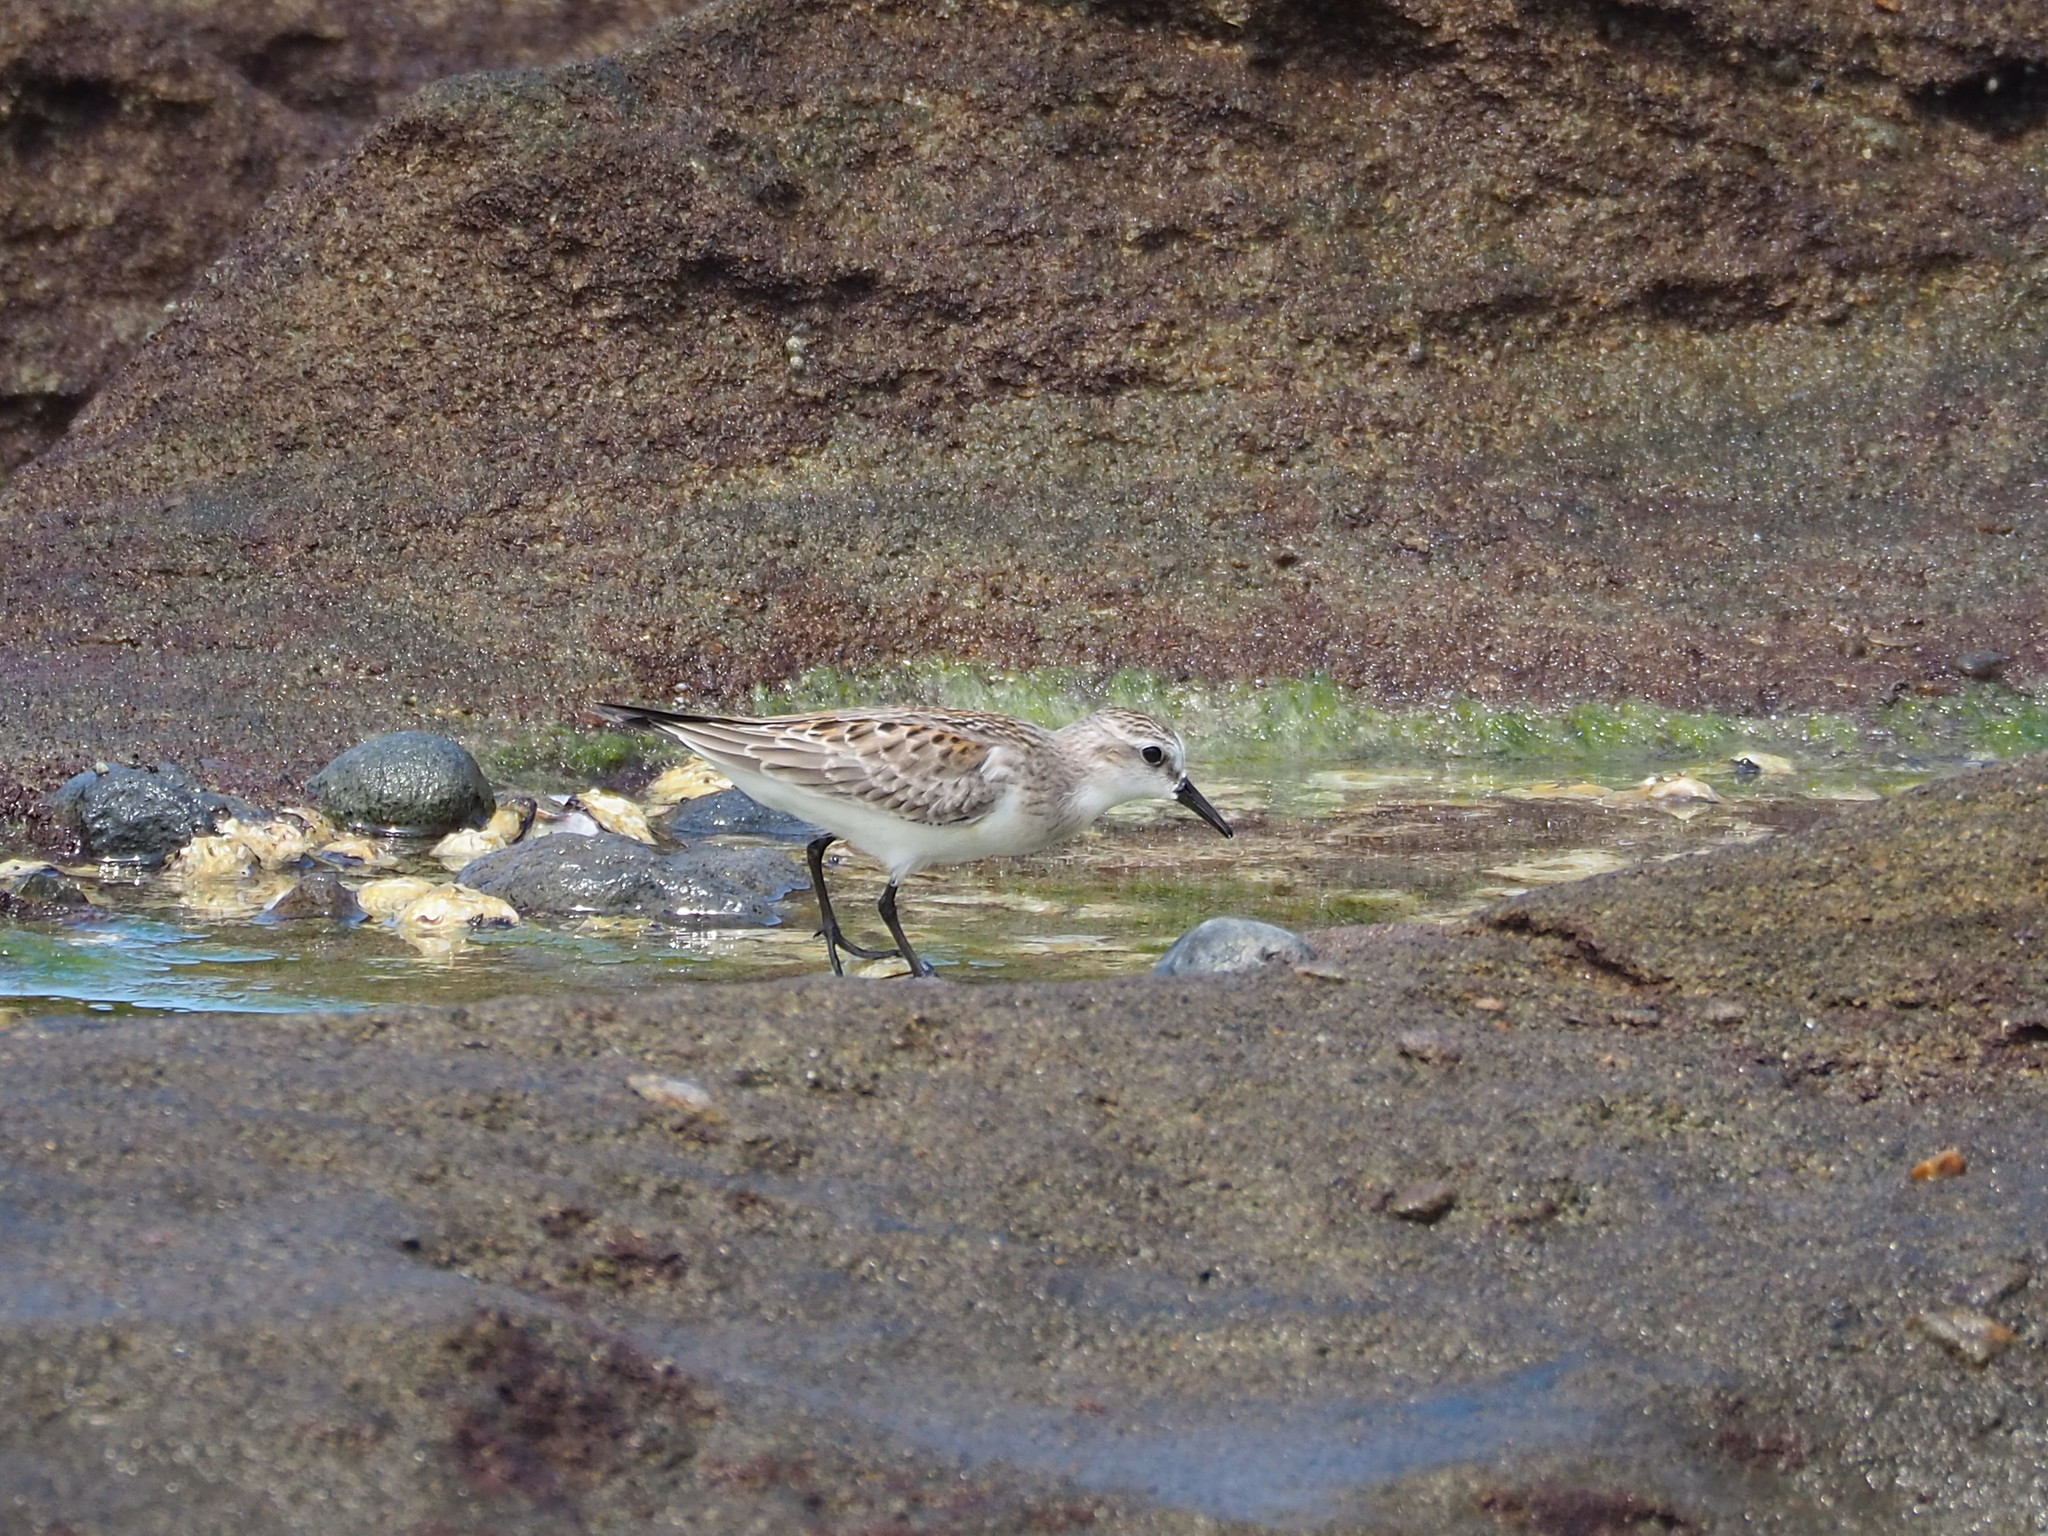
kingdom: Animalia
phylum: Chordata
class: Aves
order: Charadriiformes
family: Scolopacidae
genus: Calidris
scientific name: Calidris ruficollis
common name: Red-necked stint
